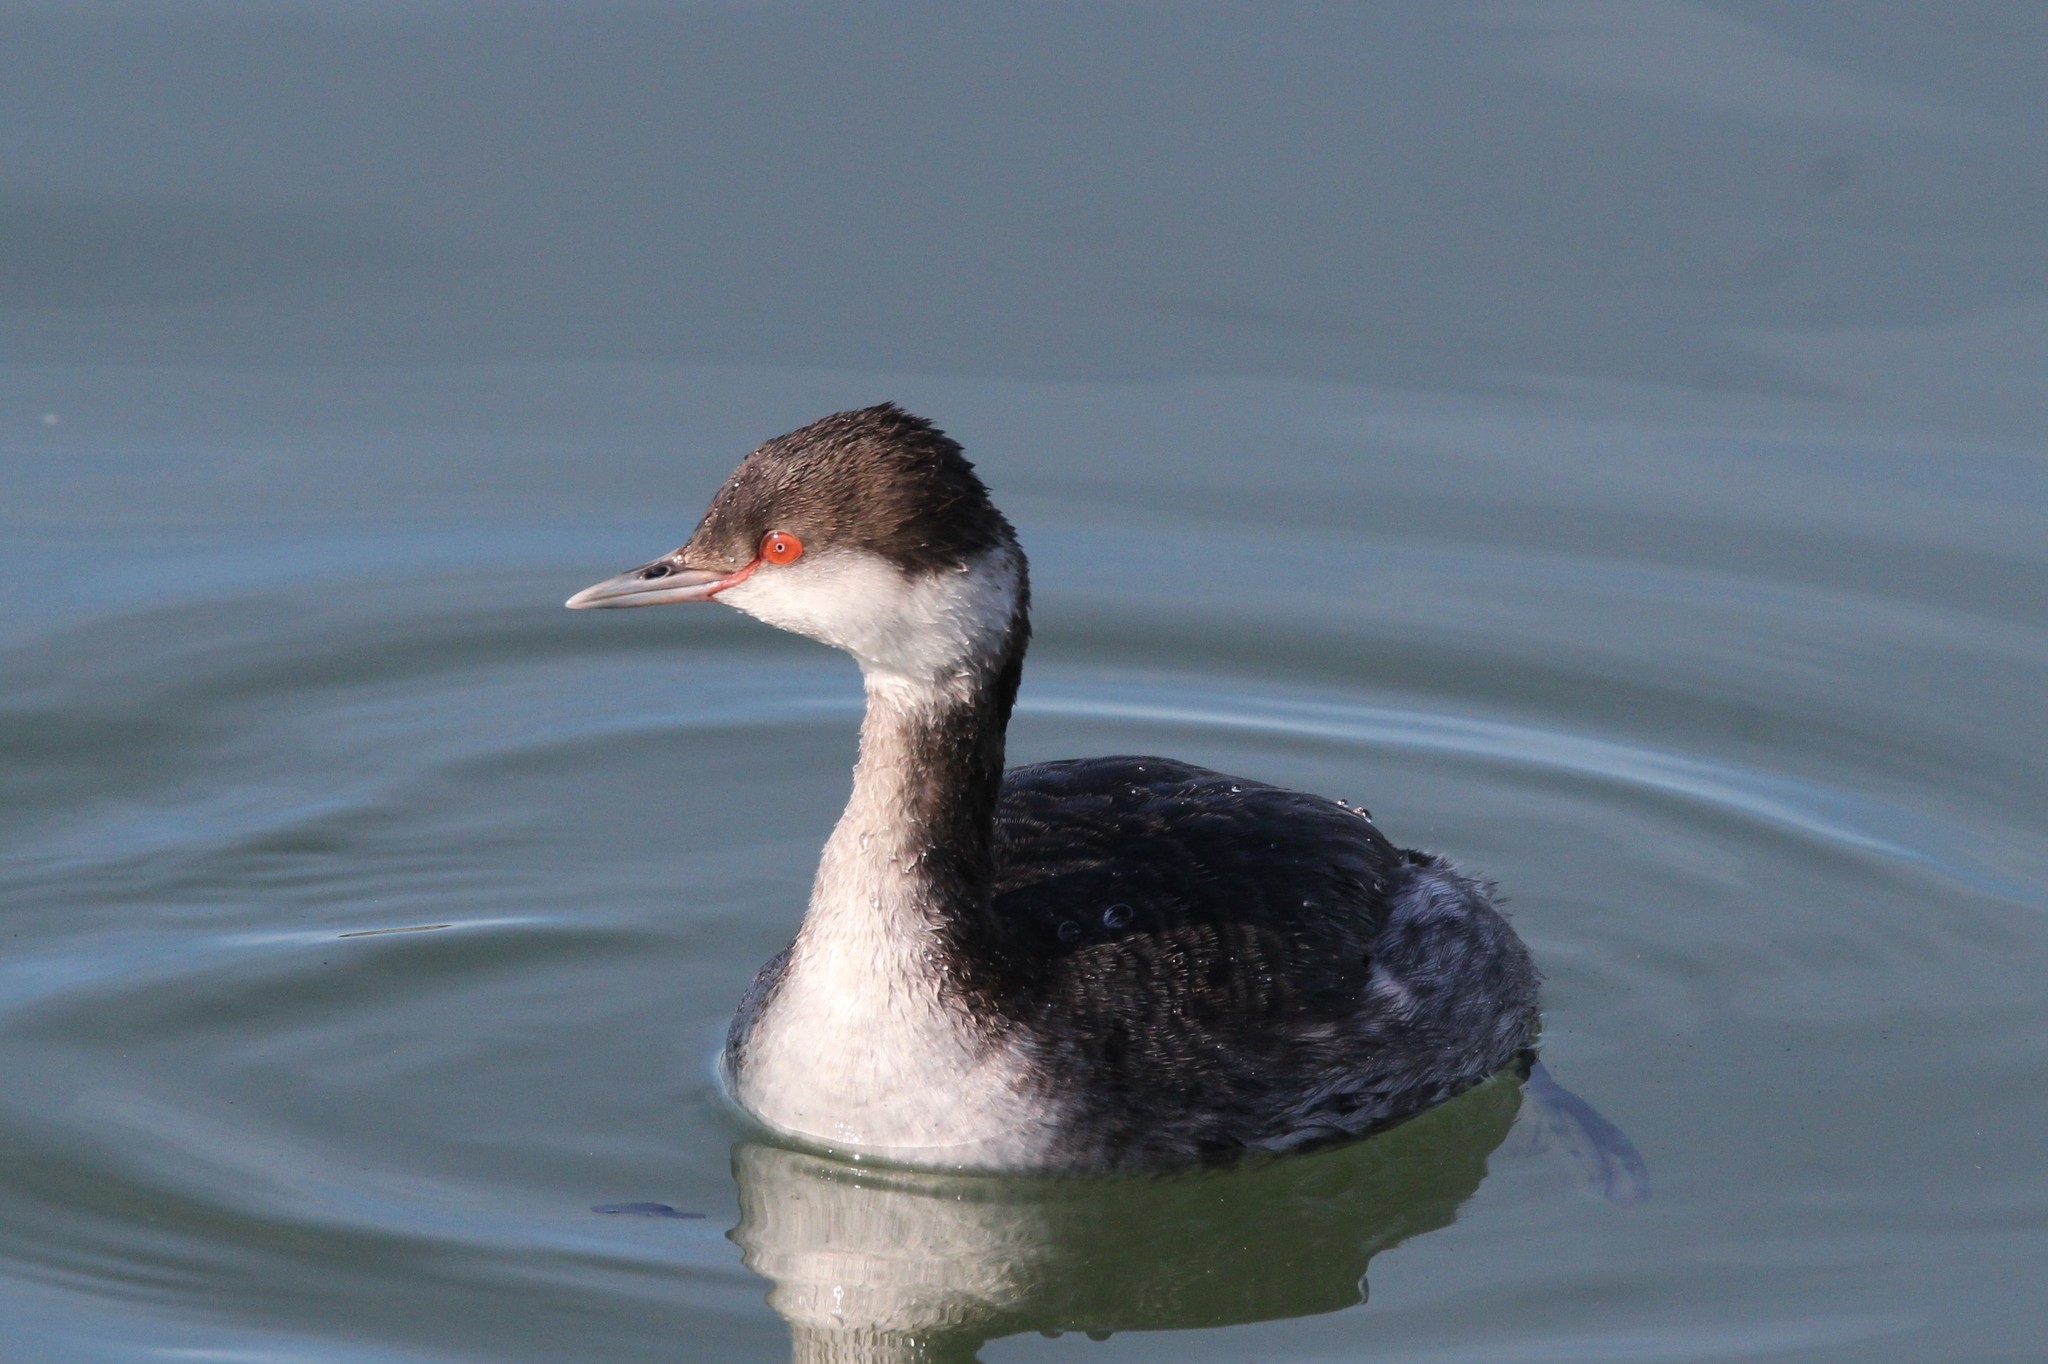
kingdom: Animalia
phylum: Chordata
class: Aves
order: Podicipediformes
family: Podicipedidae
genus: Podiceps
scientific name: Podiceps auritus
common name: Horned grebe
